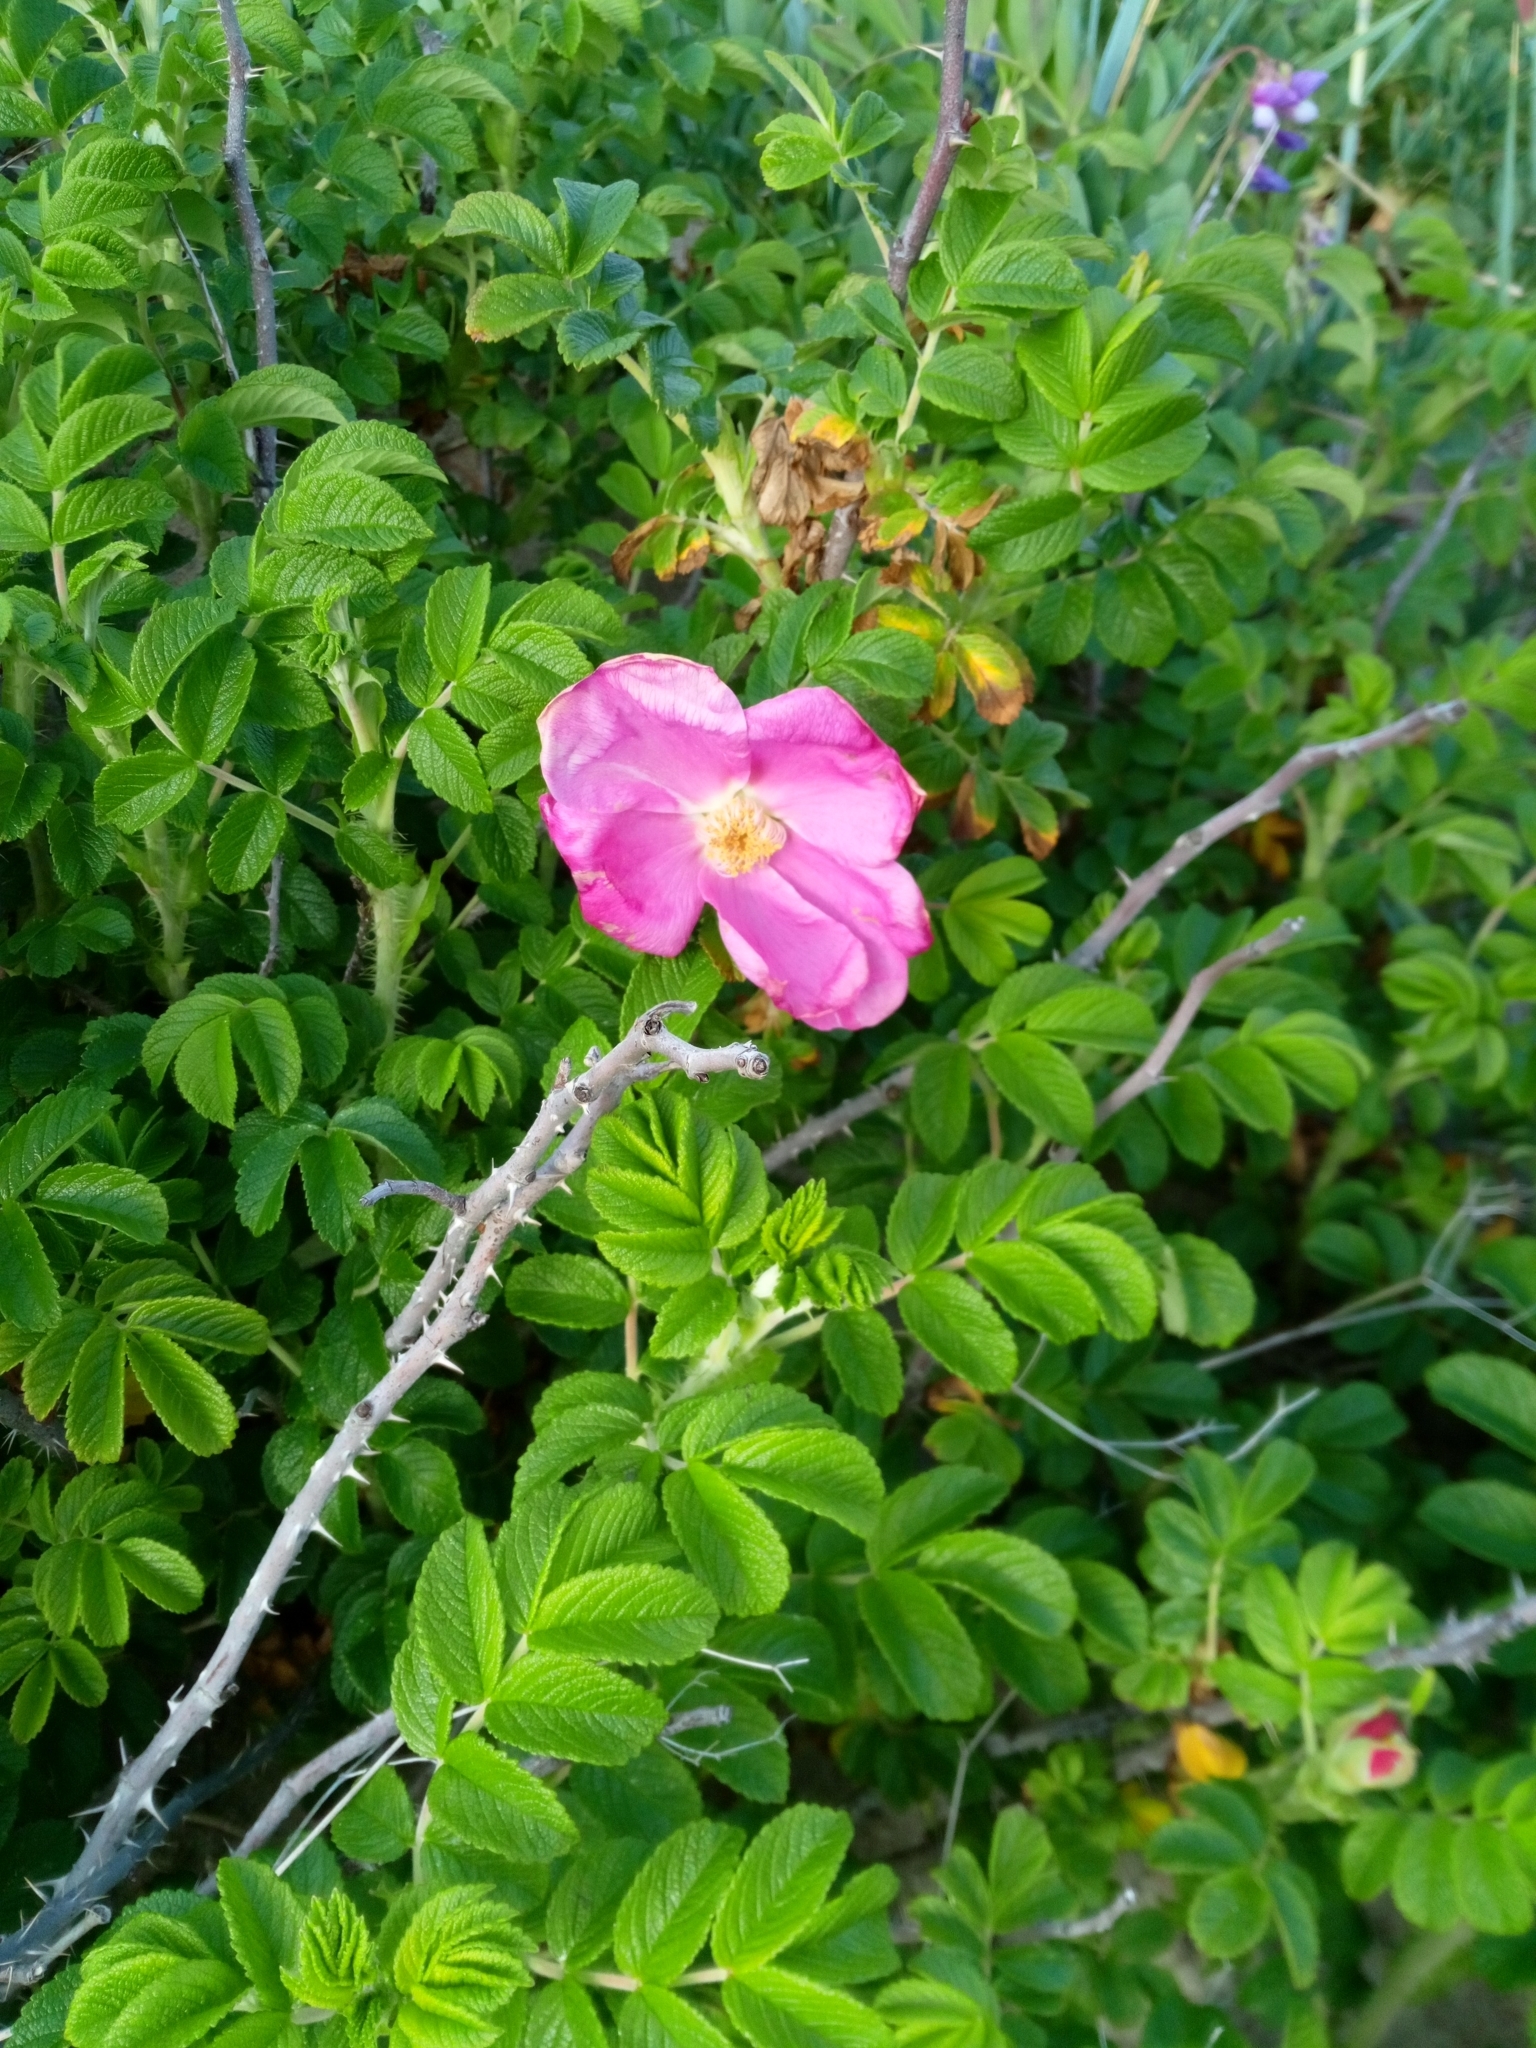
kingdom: Plantae
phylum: Tracheophyta
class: Magnoliopsida
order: Rosales
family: Rosaceae
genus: Rosa
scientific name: Rosa rugosa
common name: Japanese rose
